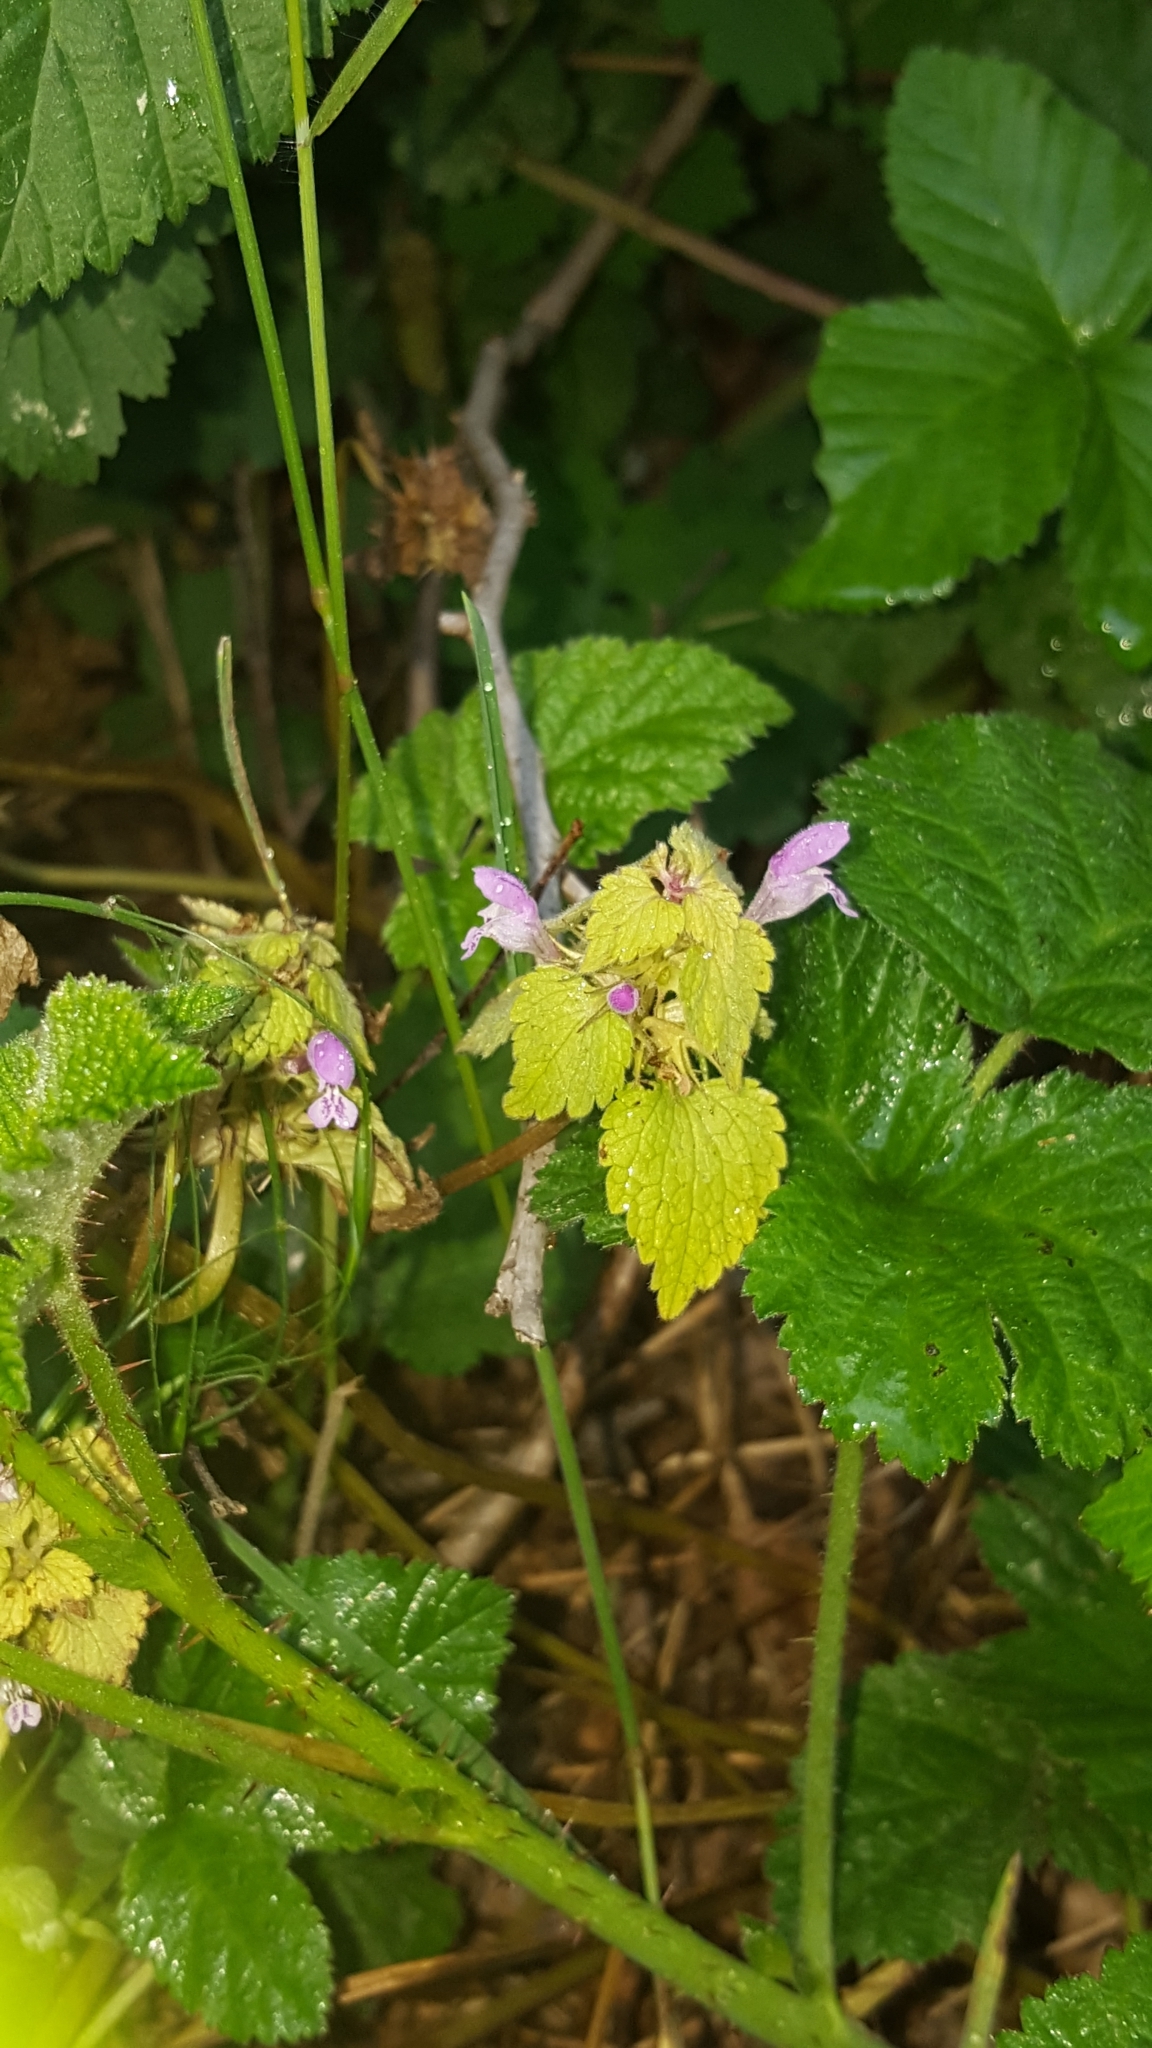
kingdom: Plantae
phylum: Tracheophyta
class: Magnoliopsida
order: Lamiales
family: Lamiaceae
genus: Lamium
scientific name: Lamium purpureum
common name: Red dead-nettle
